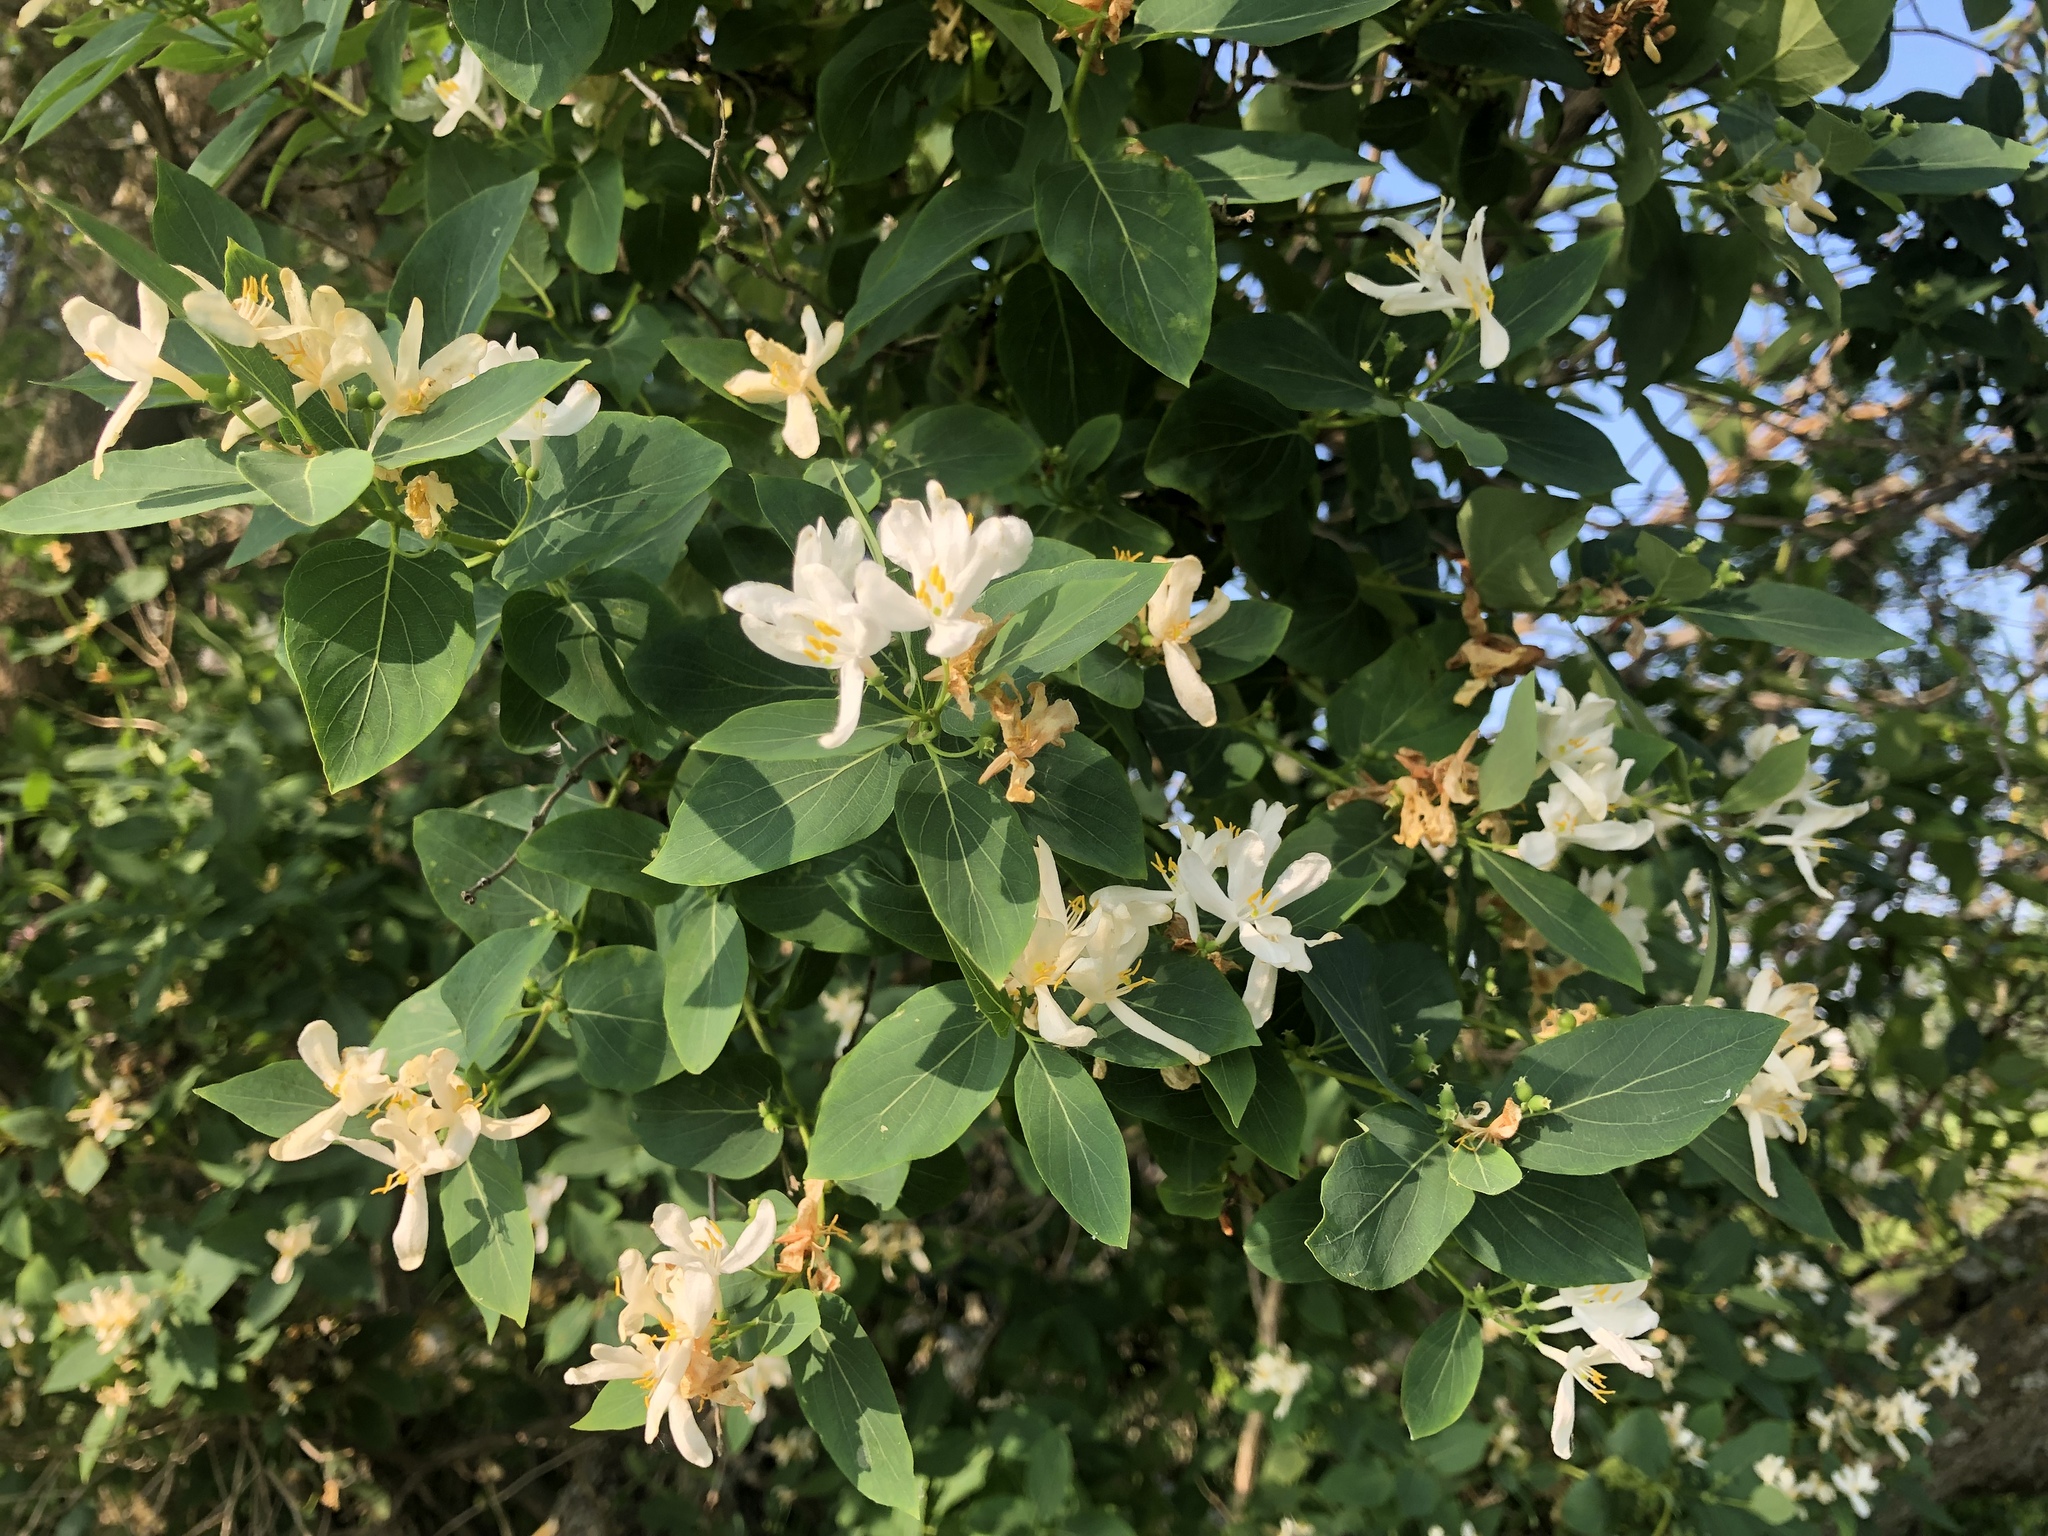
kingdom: Plantae
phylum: Tracheophyta
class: Magnoliopsida
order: Dipsacales
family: Caprifoliaceae
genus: Lonicera
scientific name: Lonicera tatarica
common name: Tatarian honeysuckle
